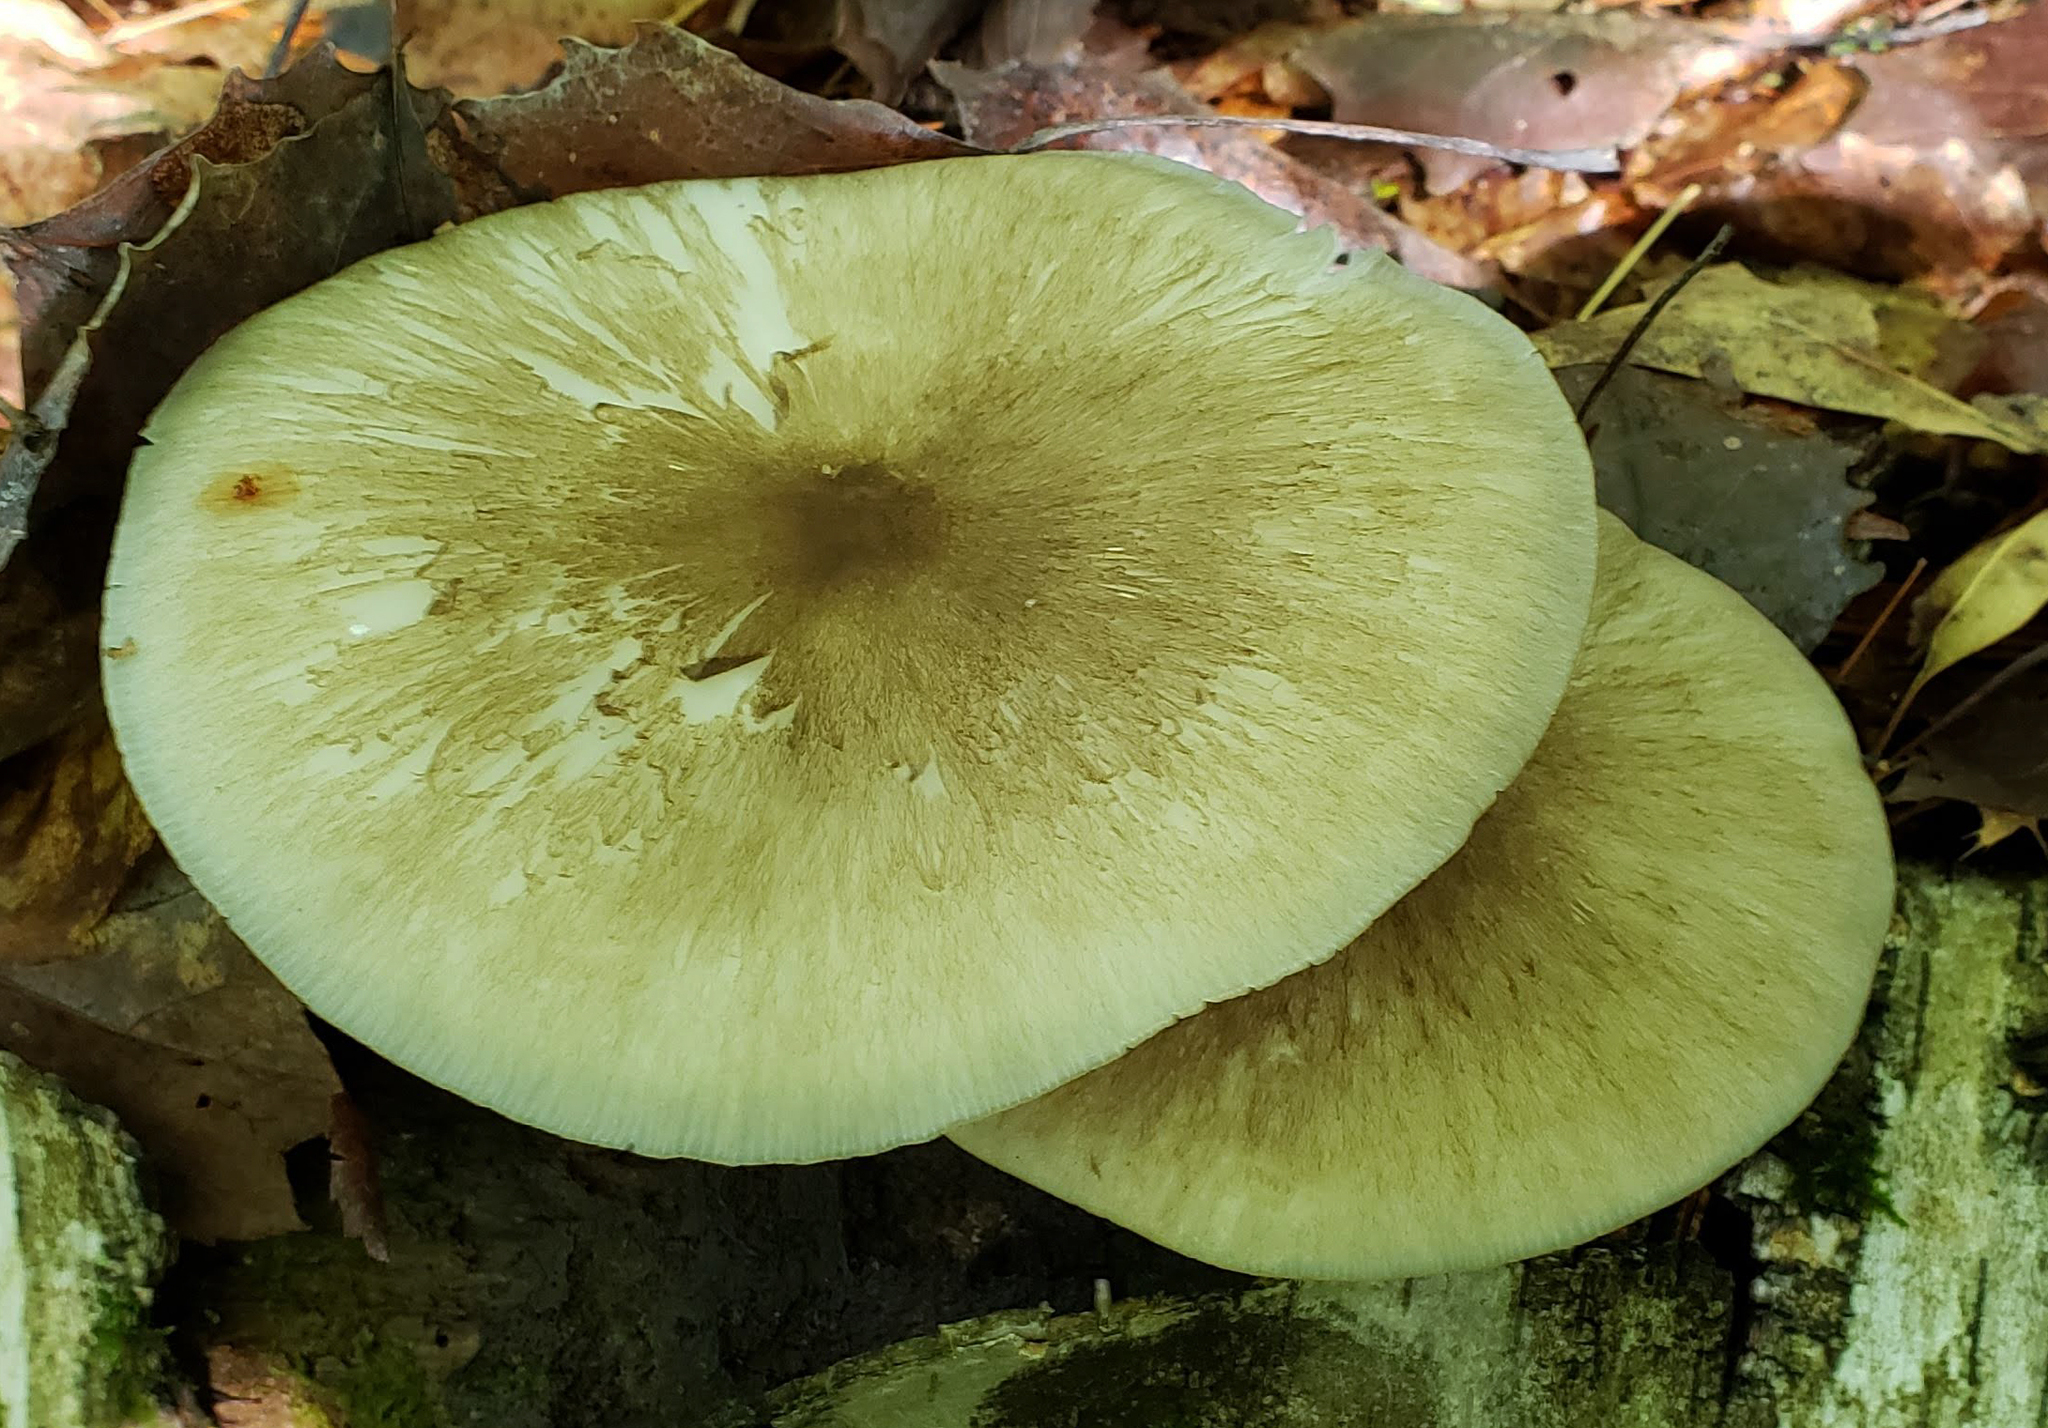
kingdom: Fungi
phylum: Basidiomycota
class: Agaricomycetes
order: Agaricales
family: Tricholomataceae
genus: Megacollybia
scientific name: Megacollybia rodmanii
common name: Eastern american platterful mushroom
